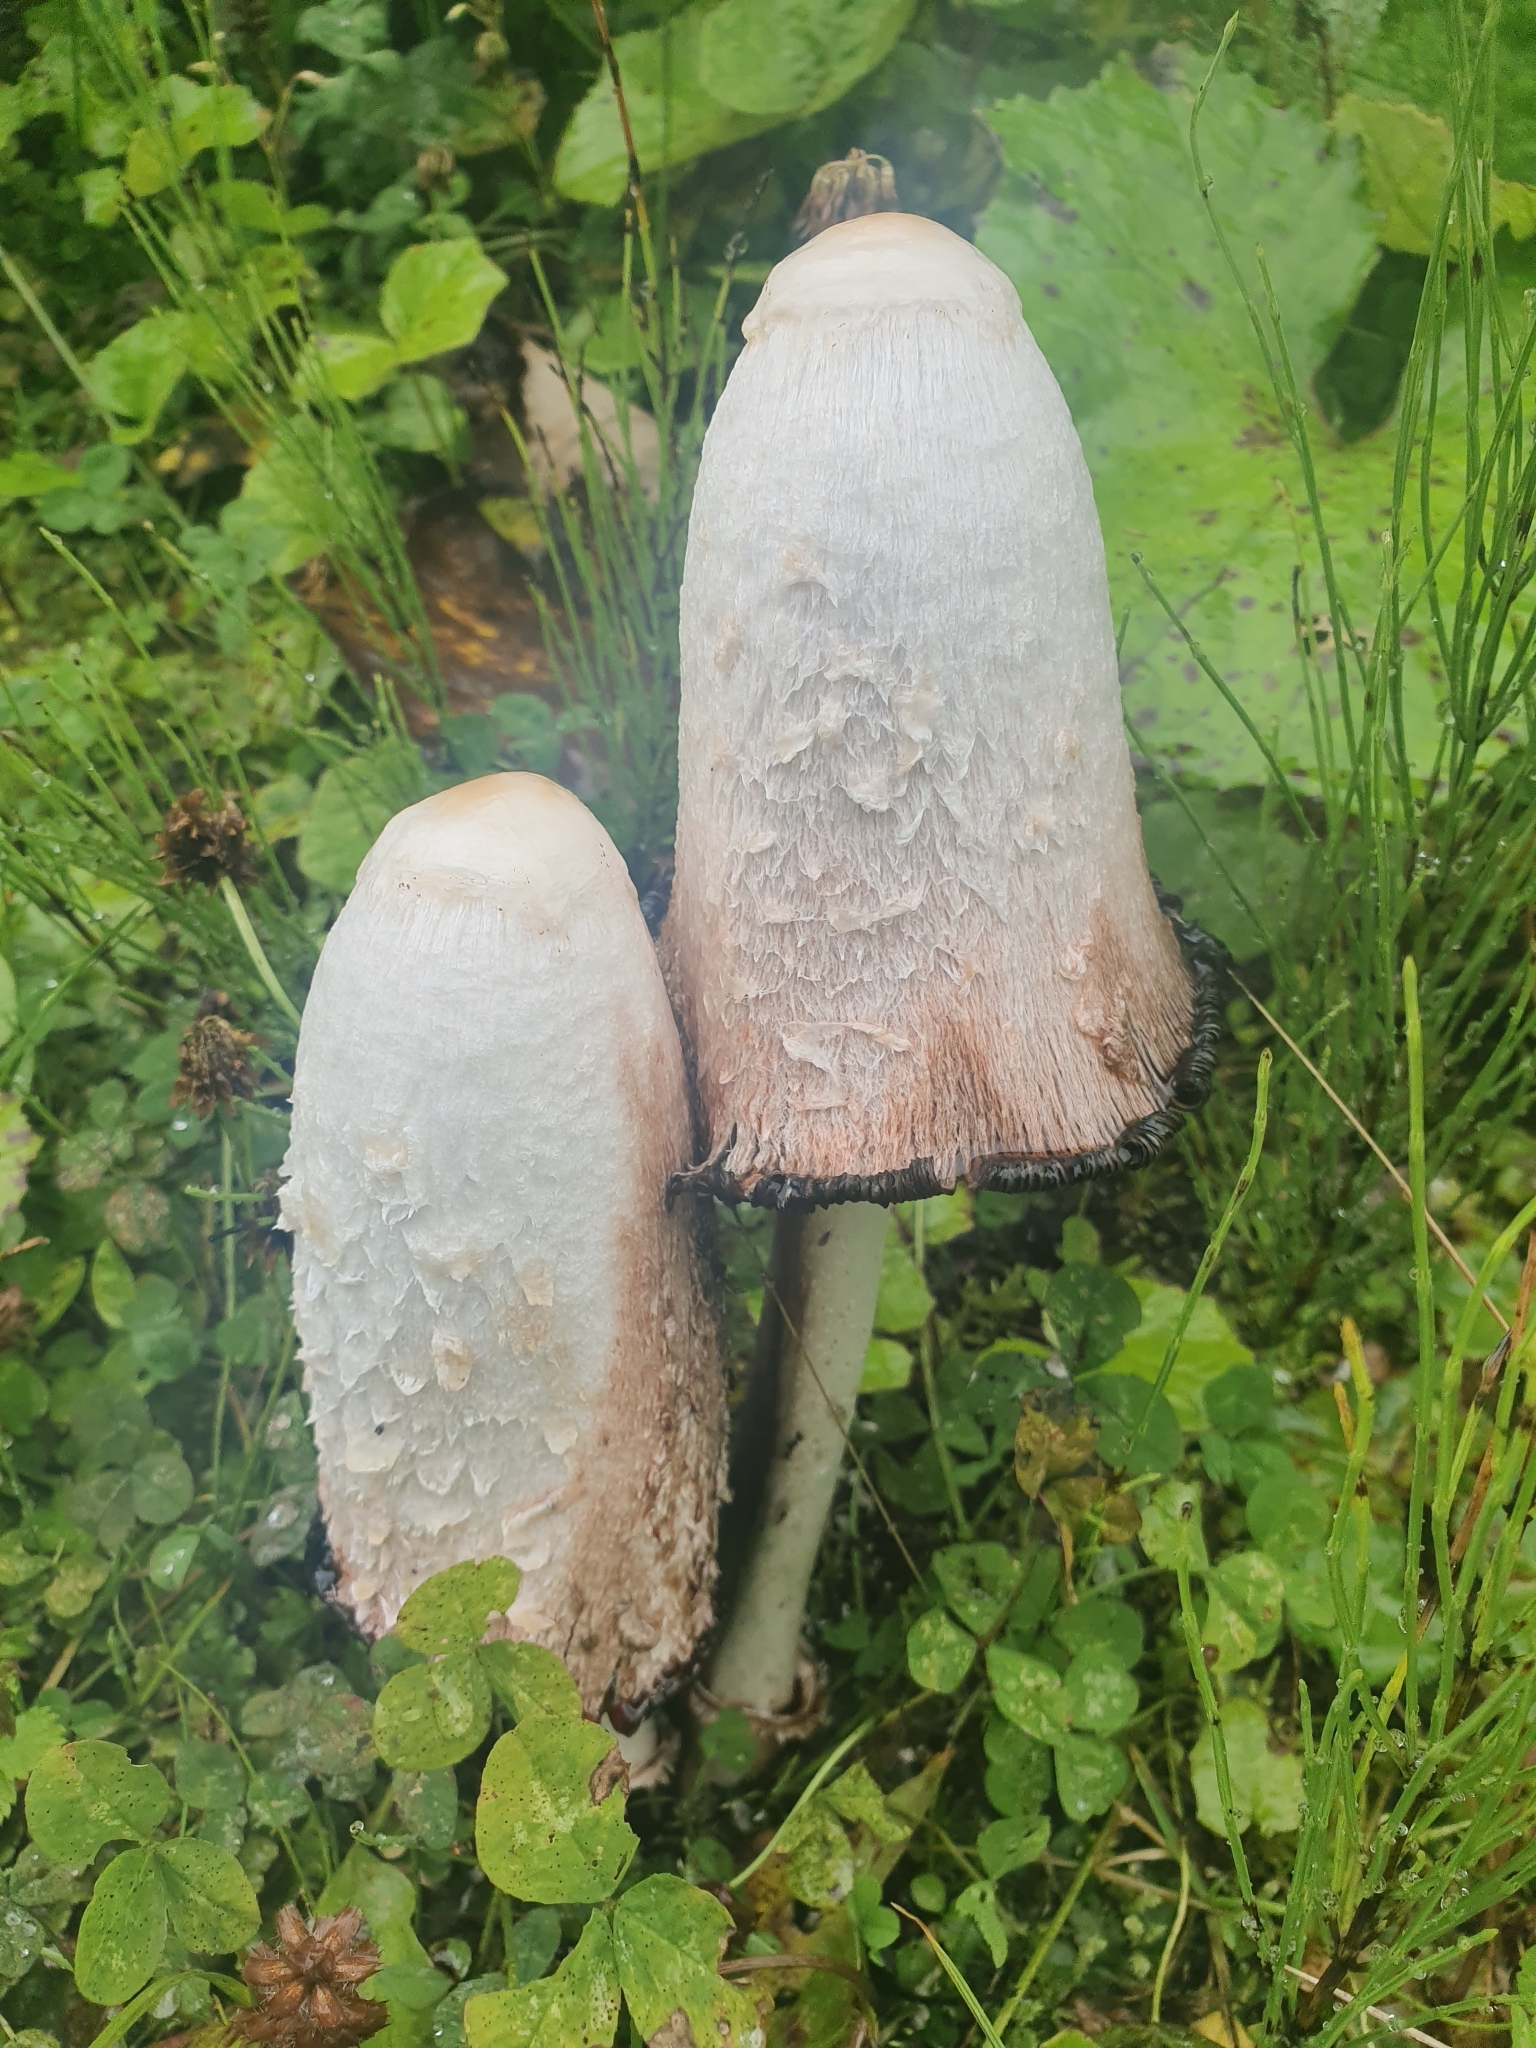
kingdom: Fungi
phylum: Basidiomycota
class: Agaricomycetes
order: Agaricales
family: Agaricaceae
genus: Coprinus
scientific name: Coprinus comatus
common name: Lawyer's wig
